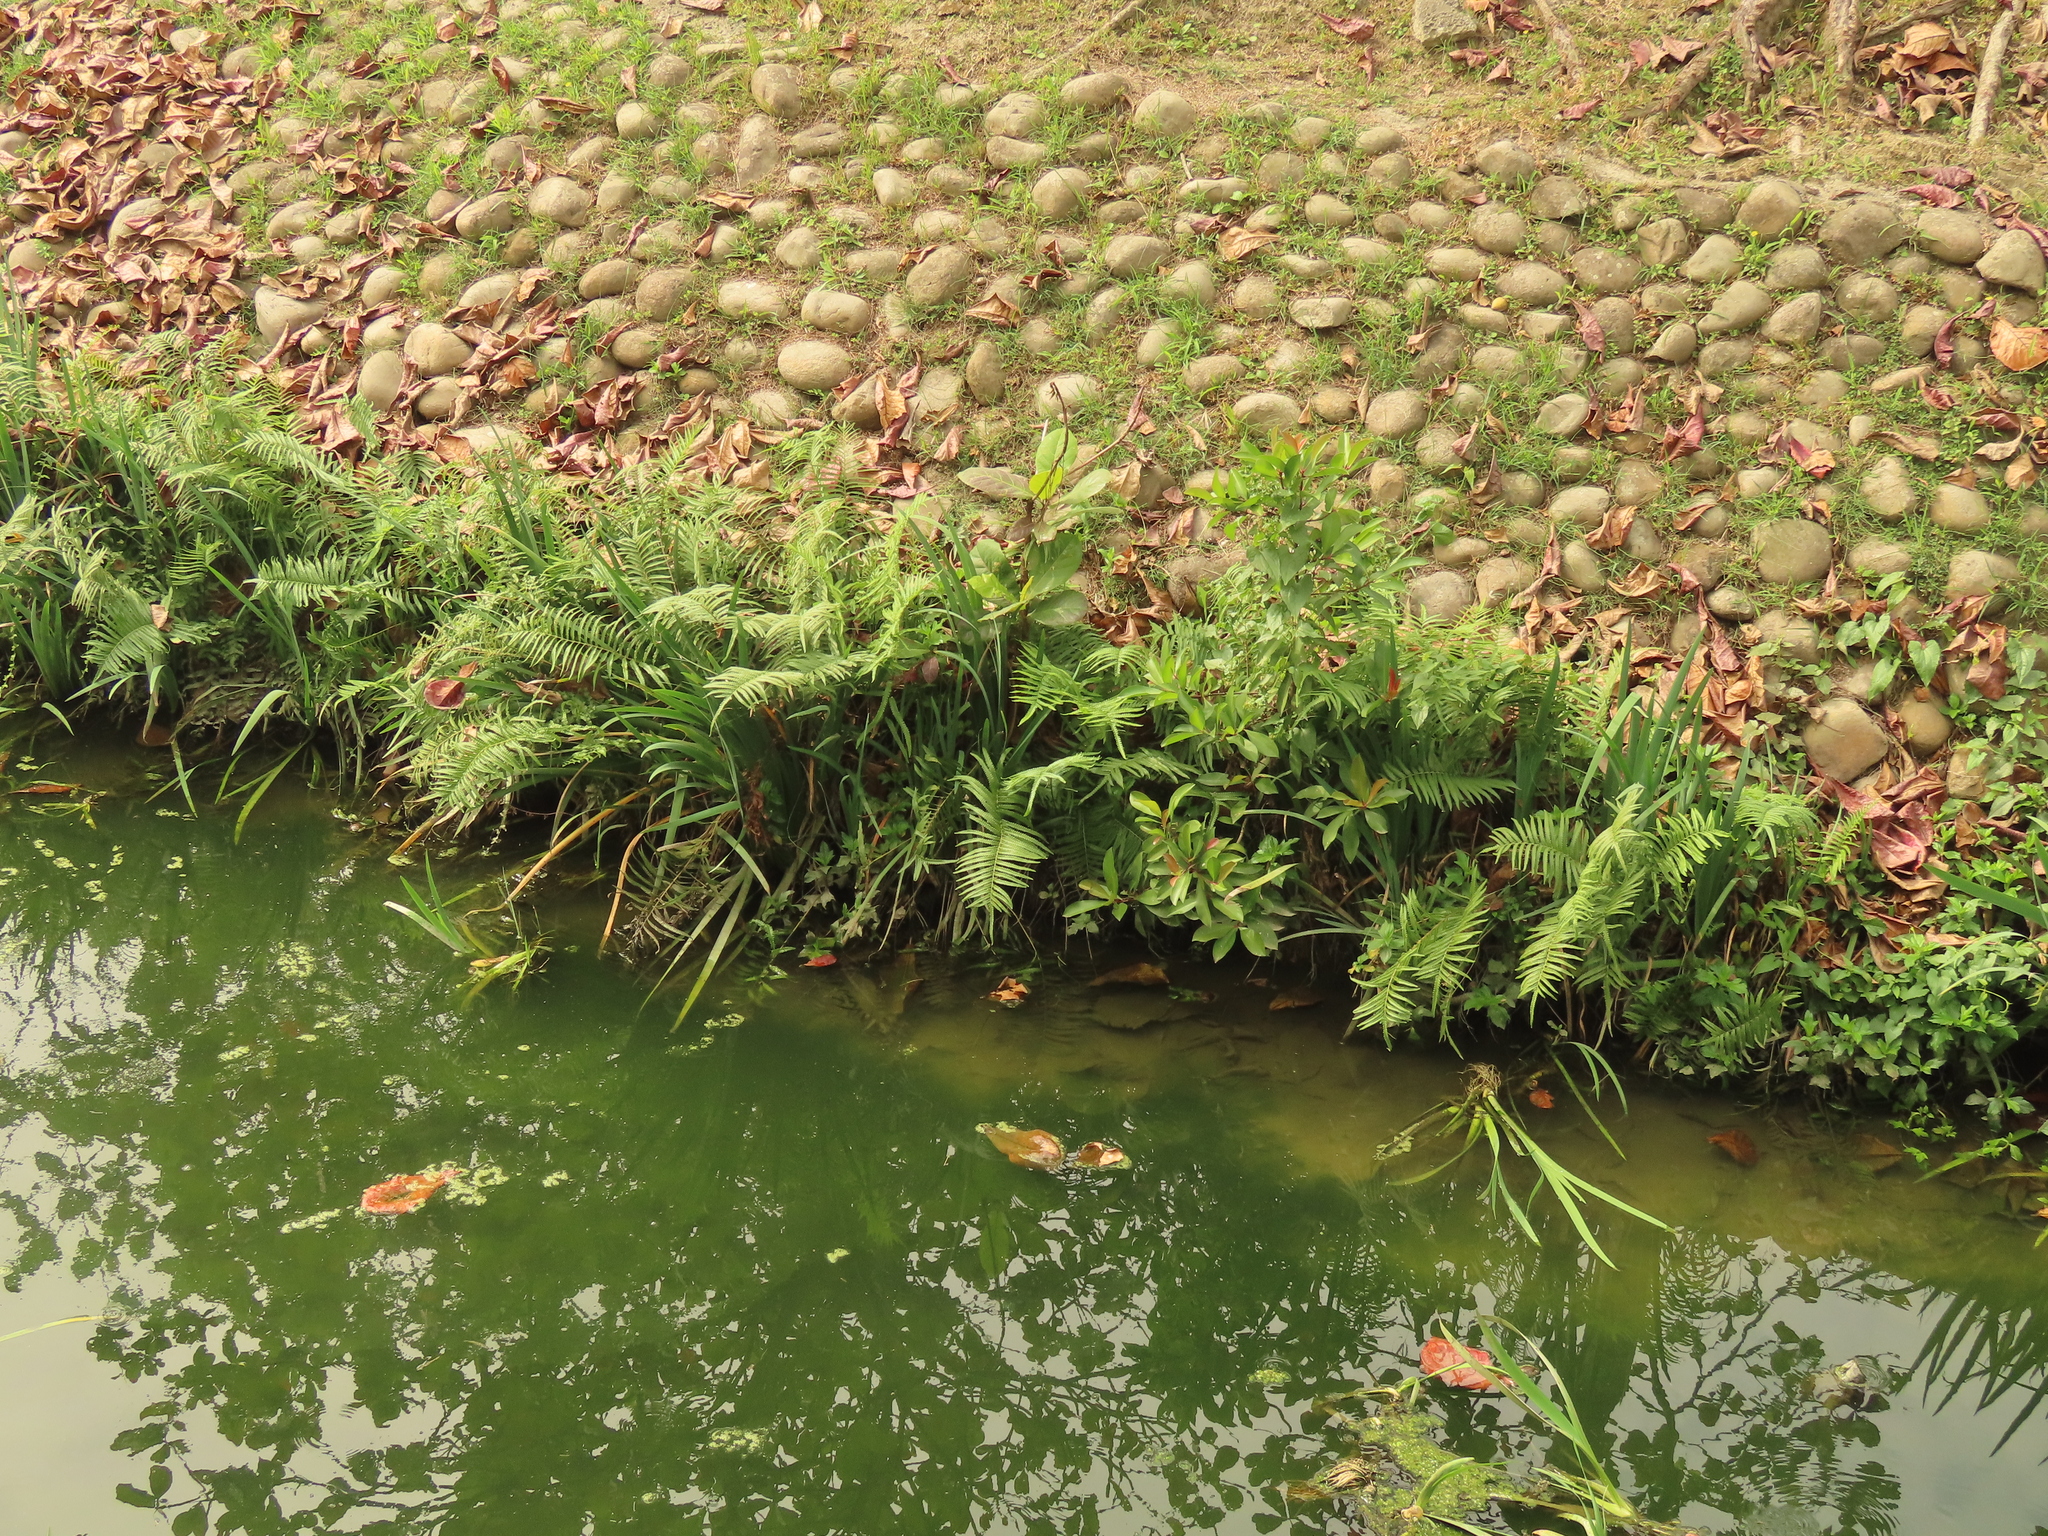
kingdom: Plantae
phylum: Tracheophyta
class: Polypodiopsida
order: Polypodiales
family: Thelypteridaceae
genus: Cyclosorus
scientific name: Cyclosorus interruptus
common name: Neke fern
